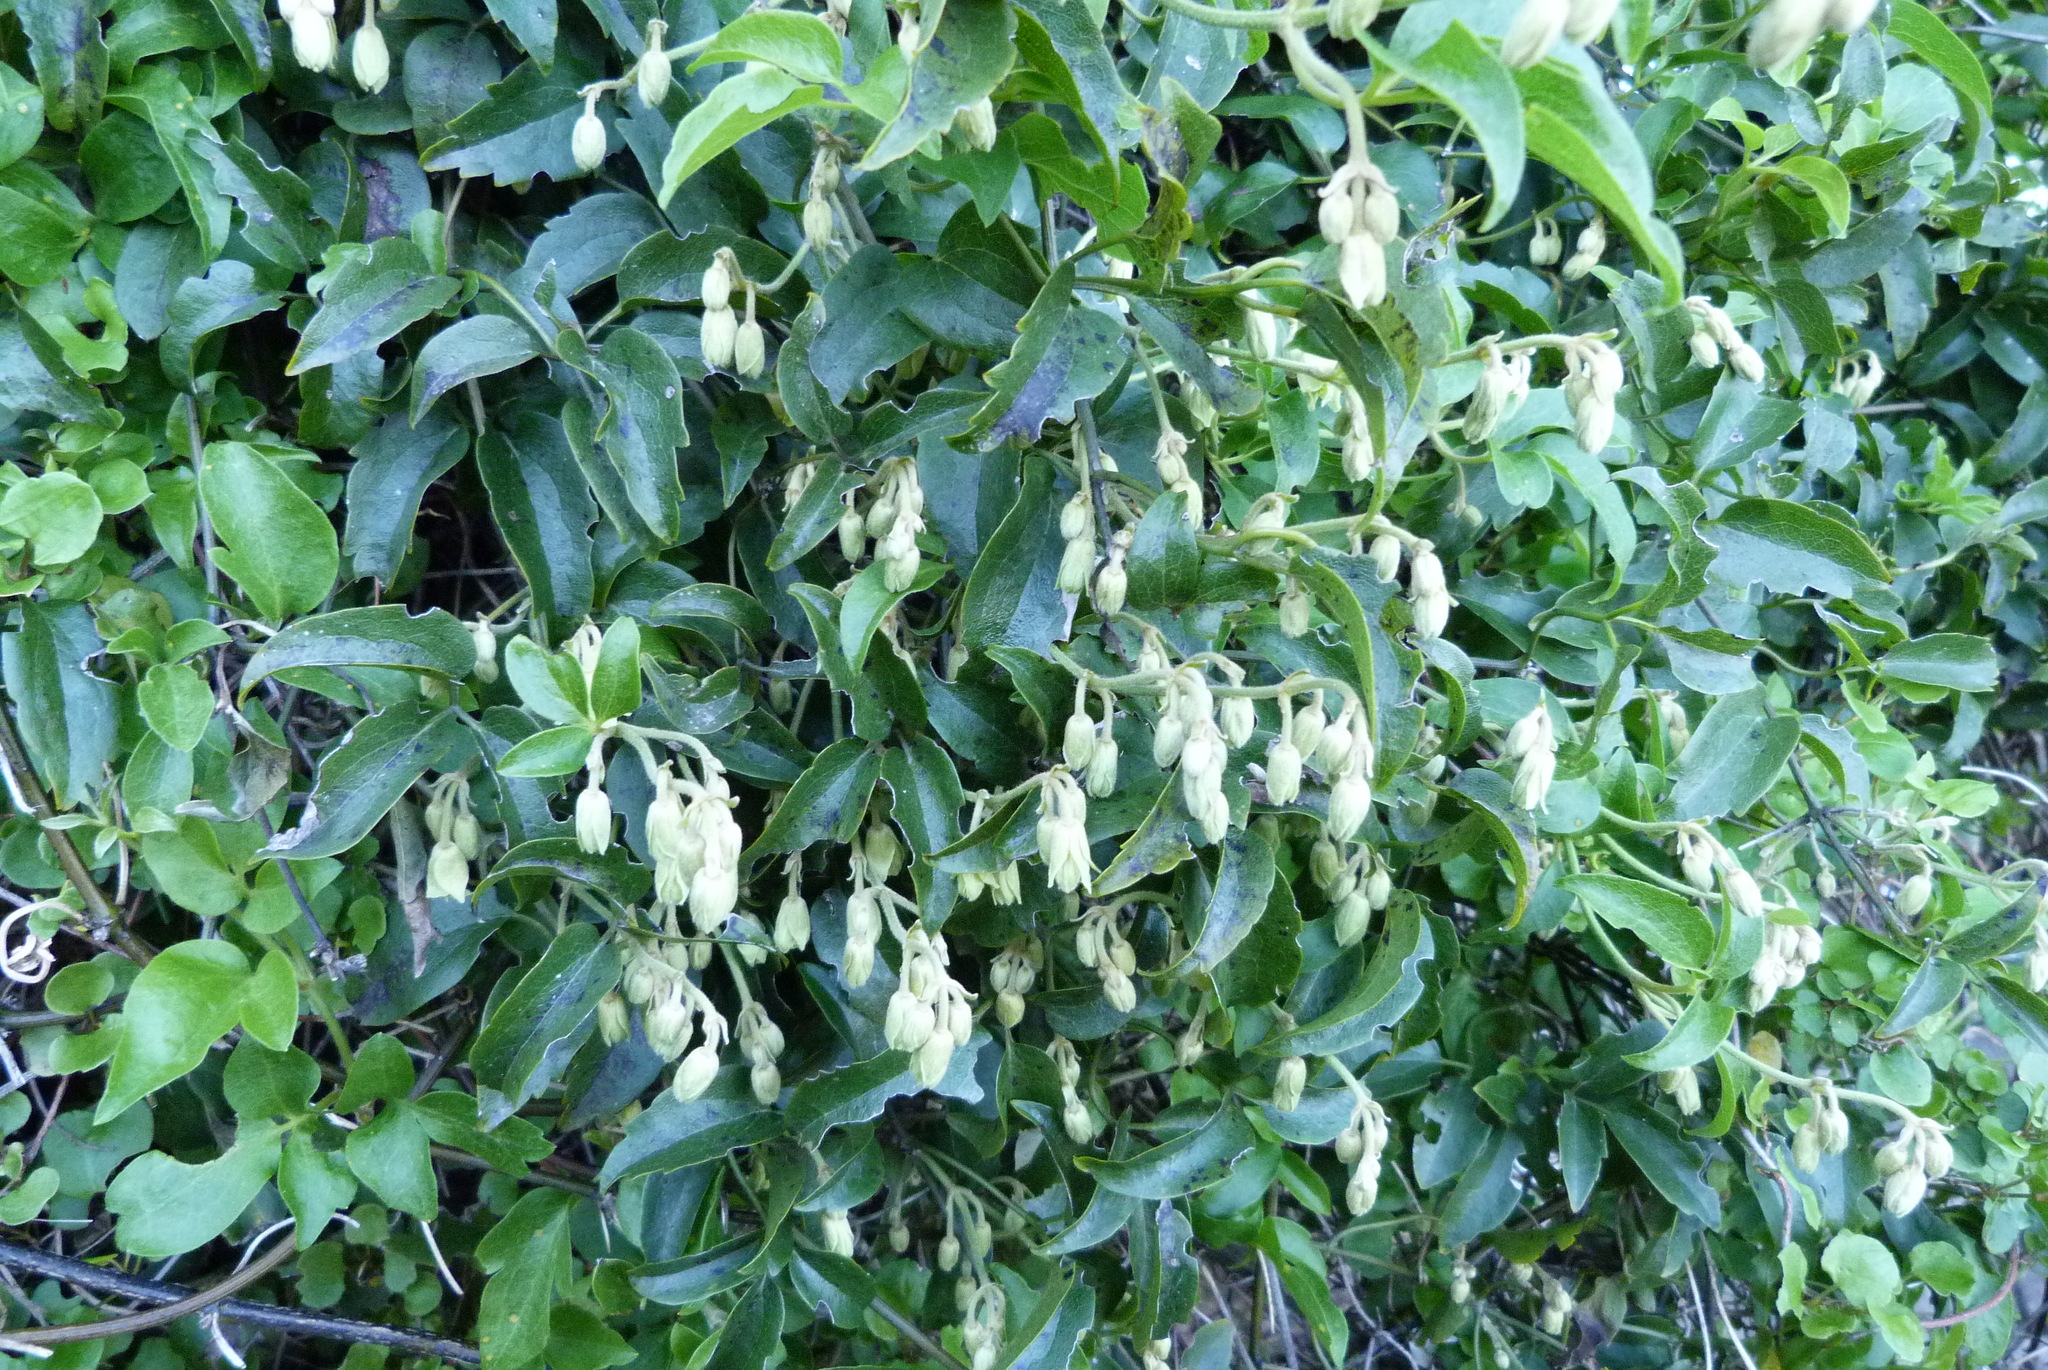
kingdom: Plantae
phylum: Tracheophyta
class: Magnoliopsida
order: Ranunculales
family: Ranunculaceae
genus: Clematis
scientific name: Clematis foetida
